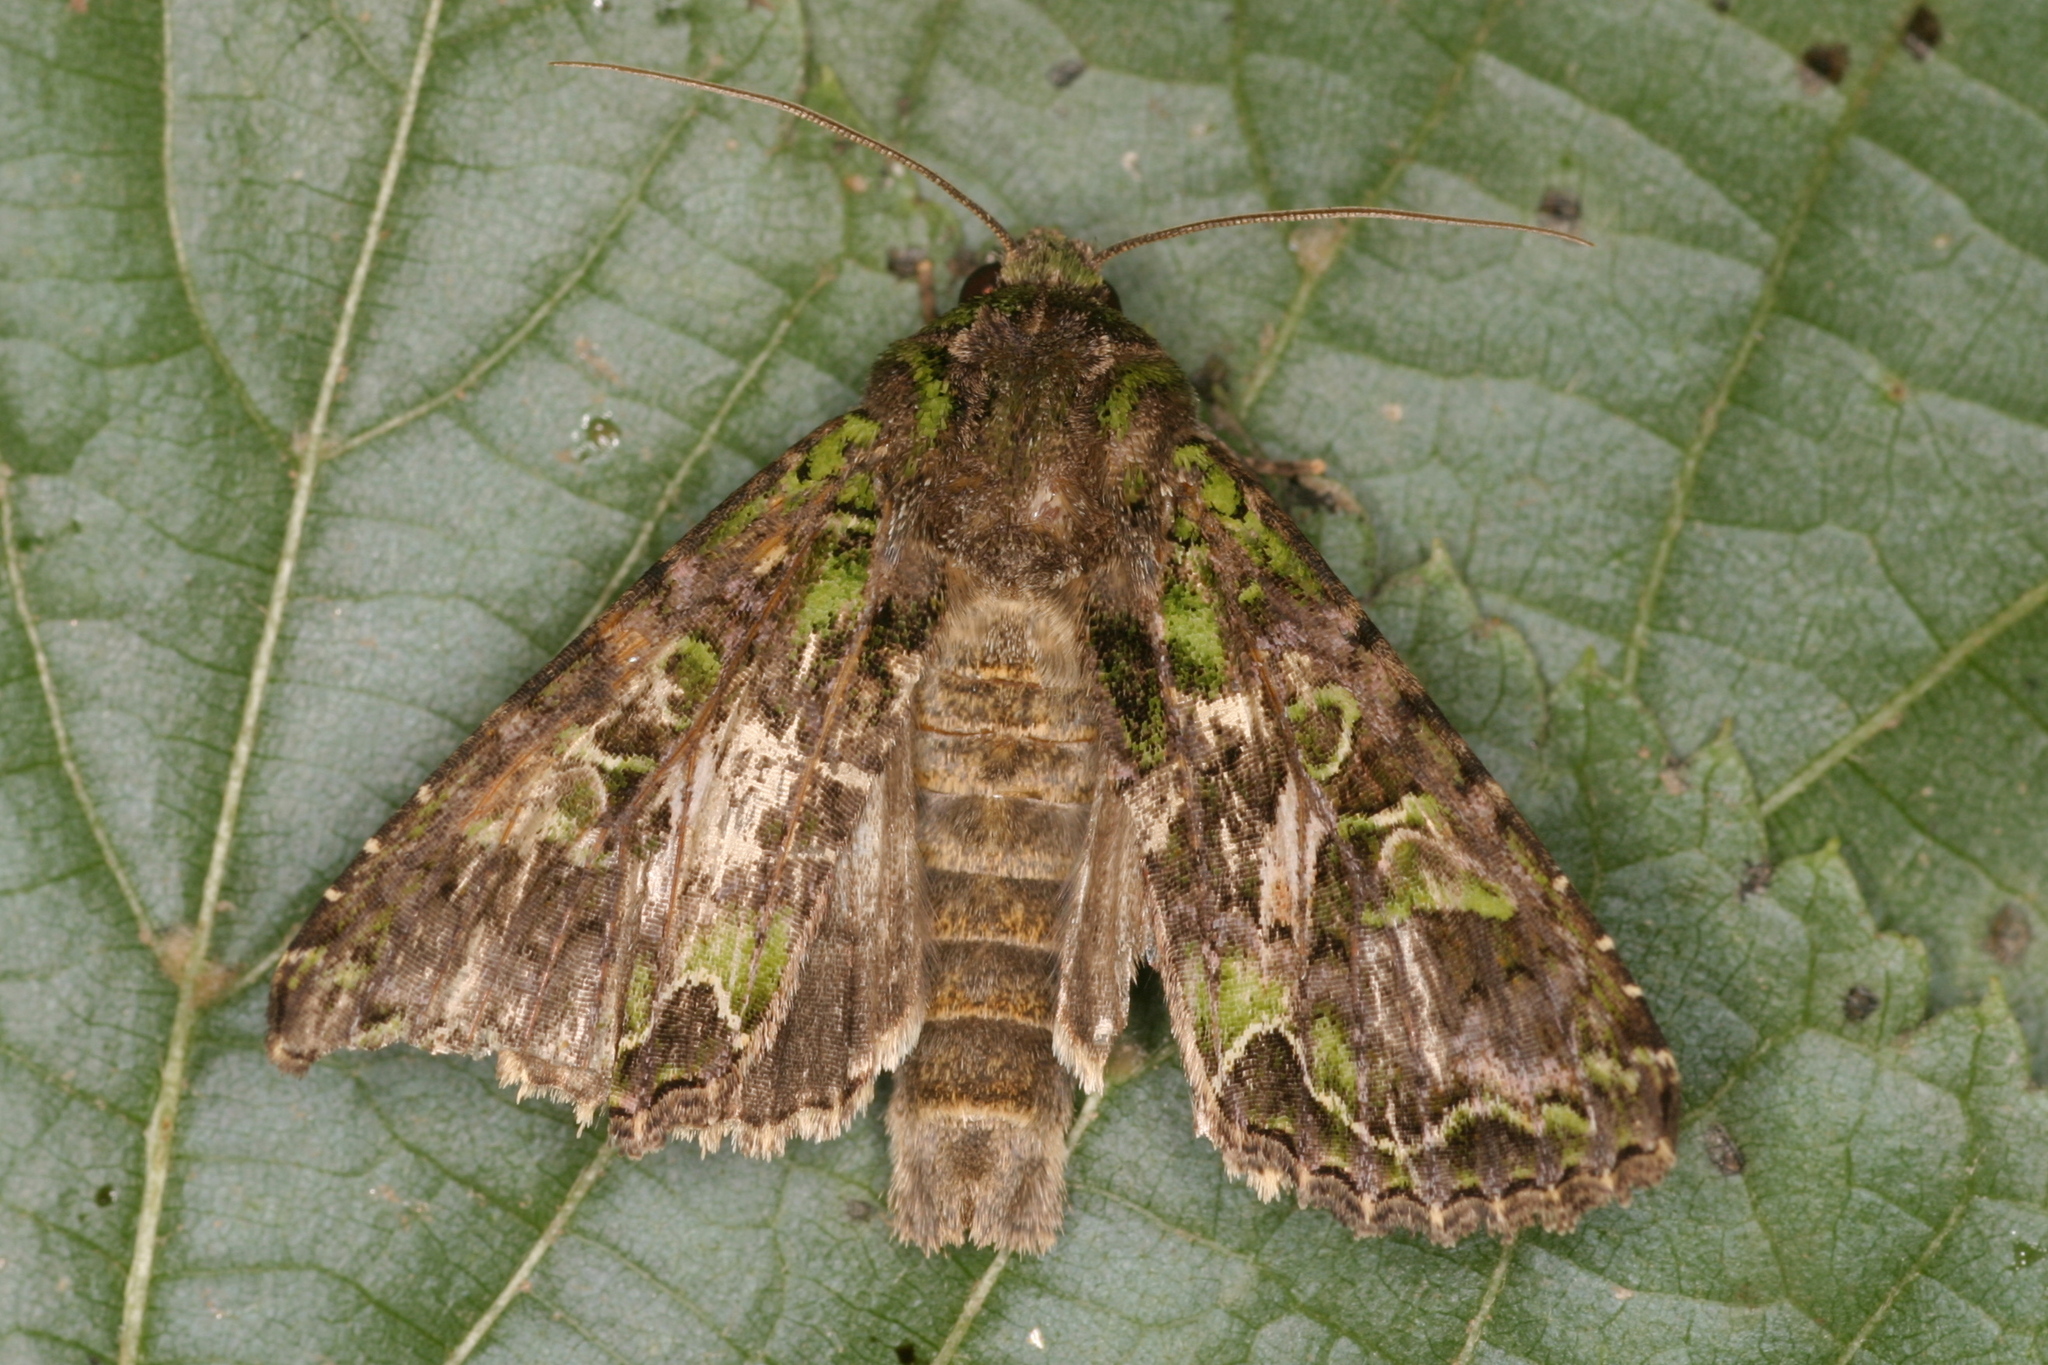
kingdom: Animalia
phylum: Arthropoda
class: Insecta
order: Lepidoptera
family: Noctuidae
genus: Trachea
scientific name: Trachea atriplicis
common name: Orache moth
